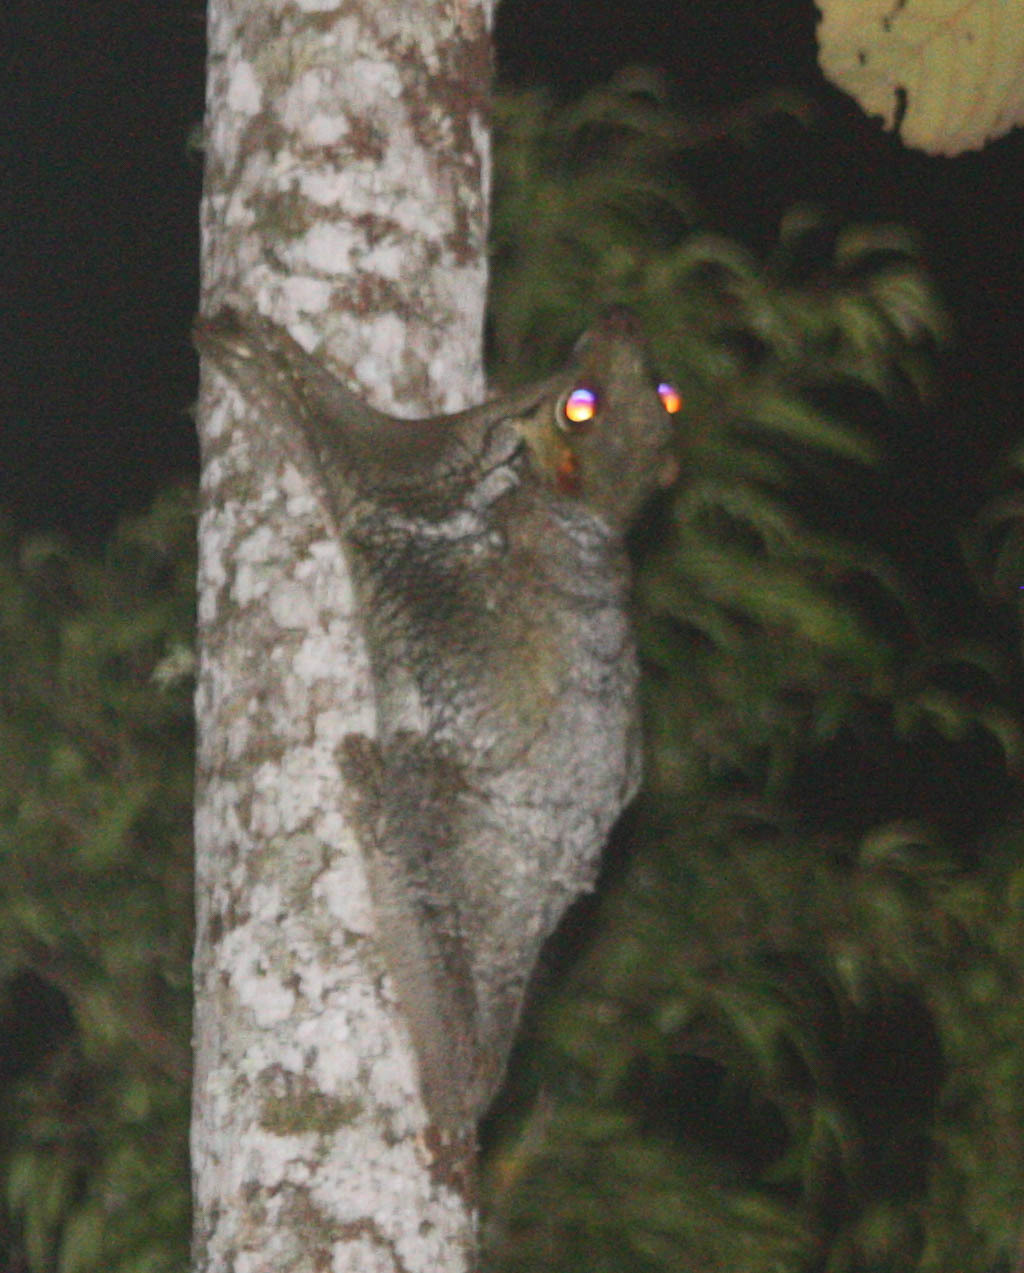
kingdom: Animalia
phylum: Chordata
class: Mammalia
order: Dermoptera
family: Cynocephalidae
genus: Galeopterus
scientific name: Galeopterus variegatus
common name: Sunda flying lemur
